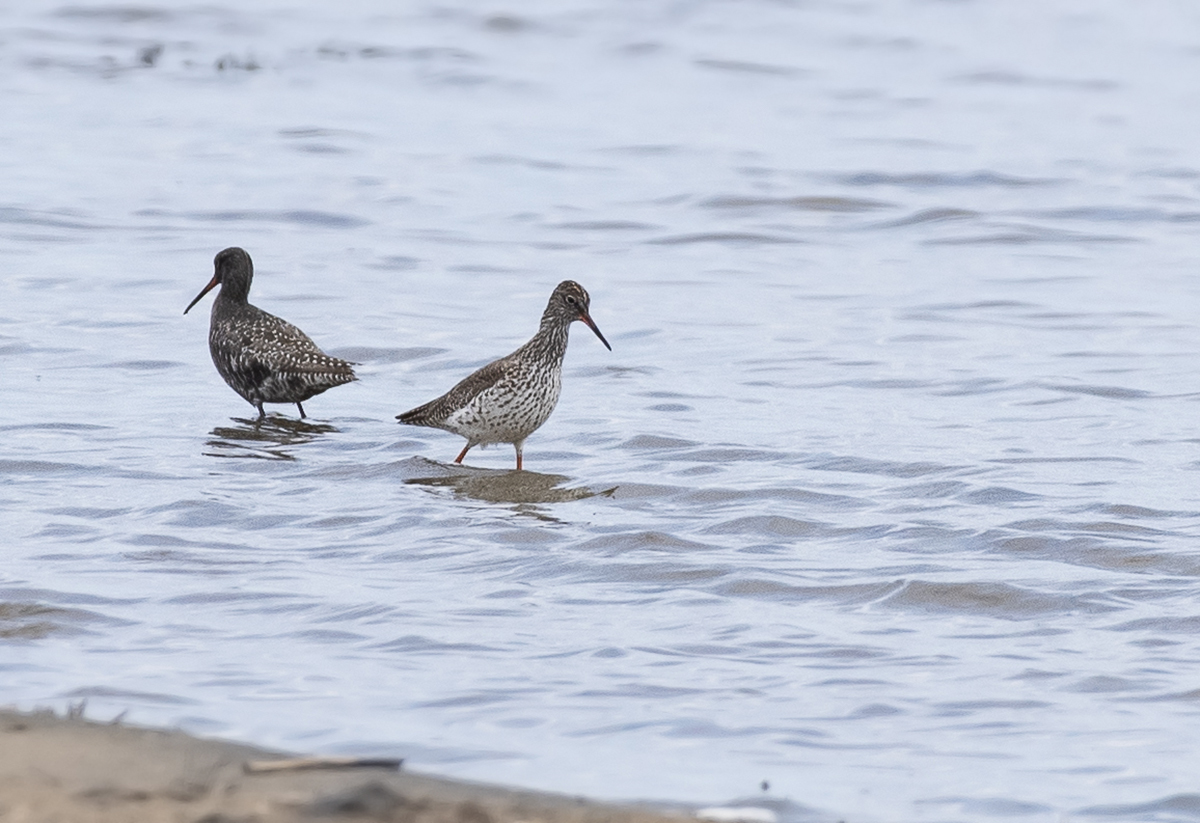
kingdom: Animalia
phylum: Chordata
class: Aves
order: Charadriiformes
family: Scolopacidae
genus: Tringa
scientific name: Tringa totanus
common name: Common redshank
